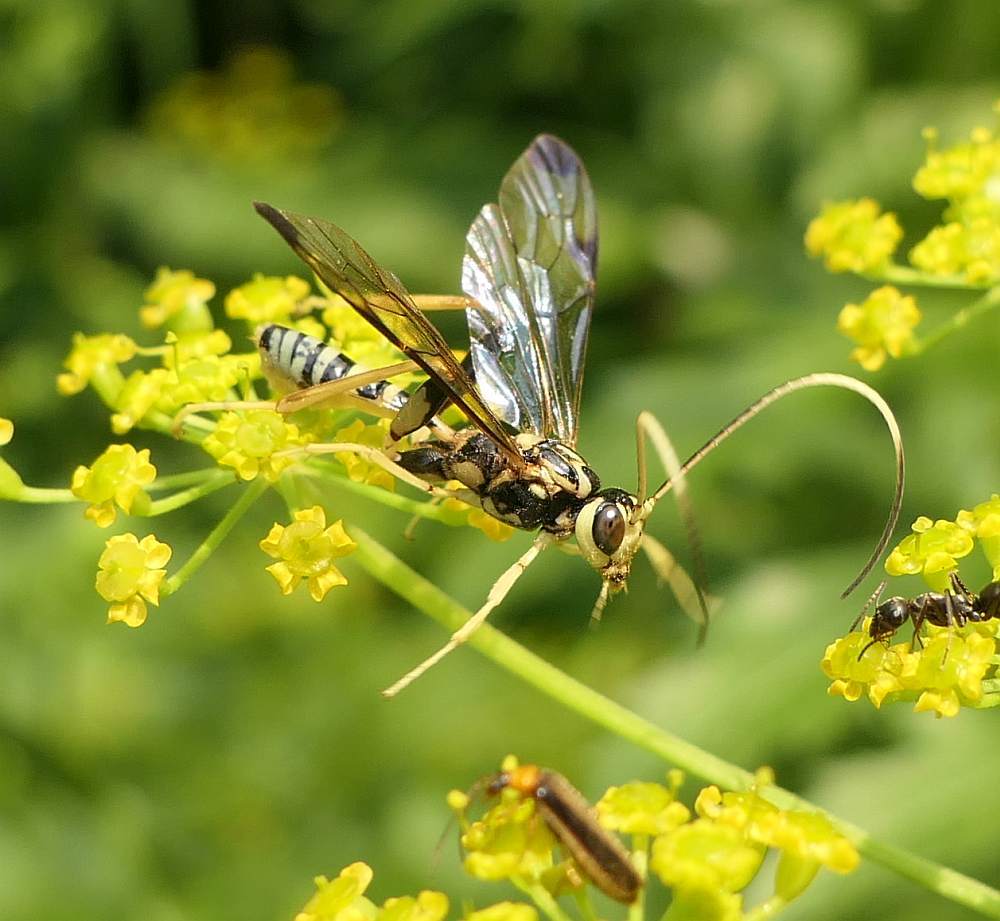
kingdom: Animalia
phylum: Arthropoda
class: Insecta
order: Hymenoptera
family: Ichneumonidae
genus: Spilopteron
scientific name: Spilopteron formosum
